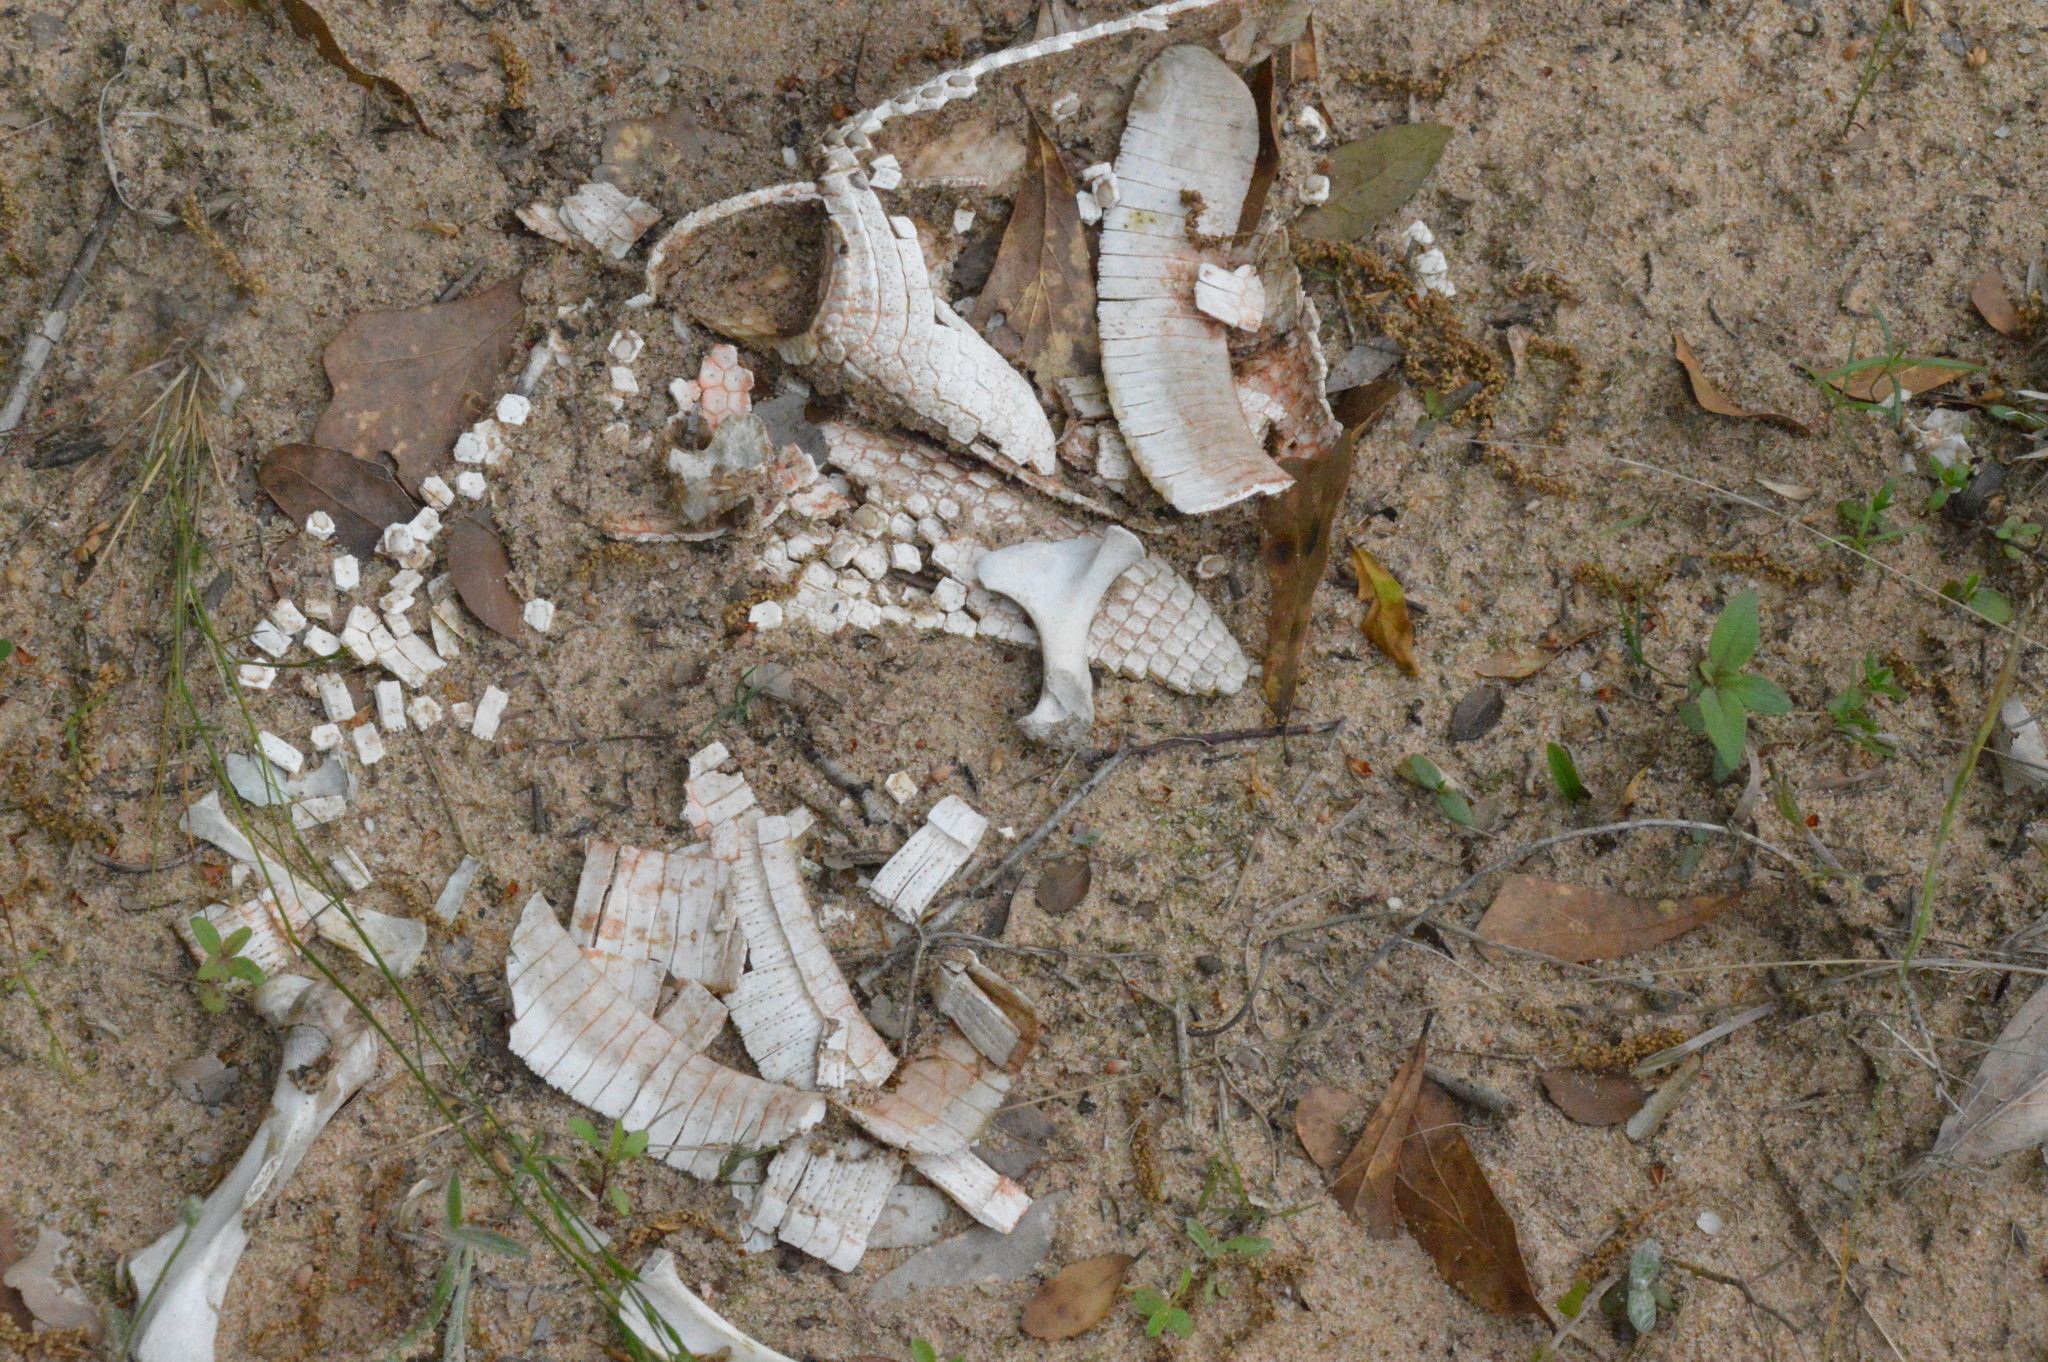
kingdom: Animalia
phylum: Chordata
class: Mammalia
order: Cingulata
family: Dasypodidae
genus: Dasypus
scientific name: Dasypus novemcinctus
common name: Nine-banded armadillo
